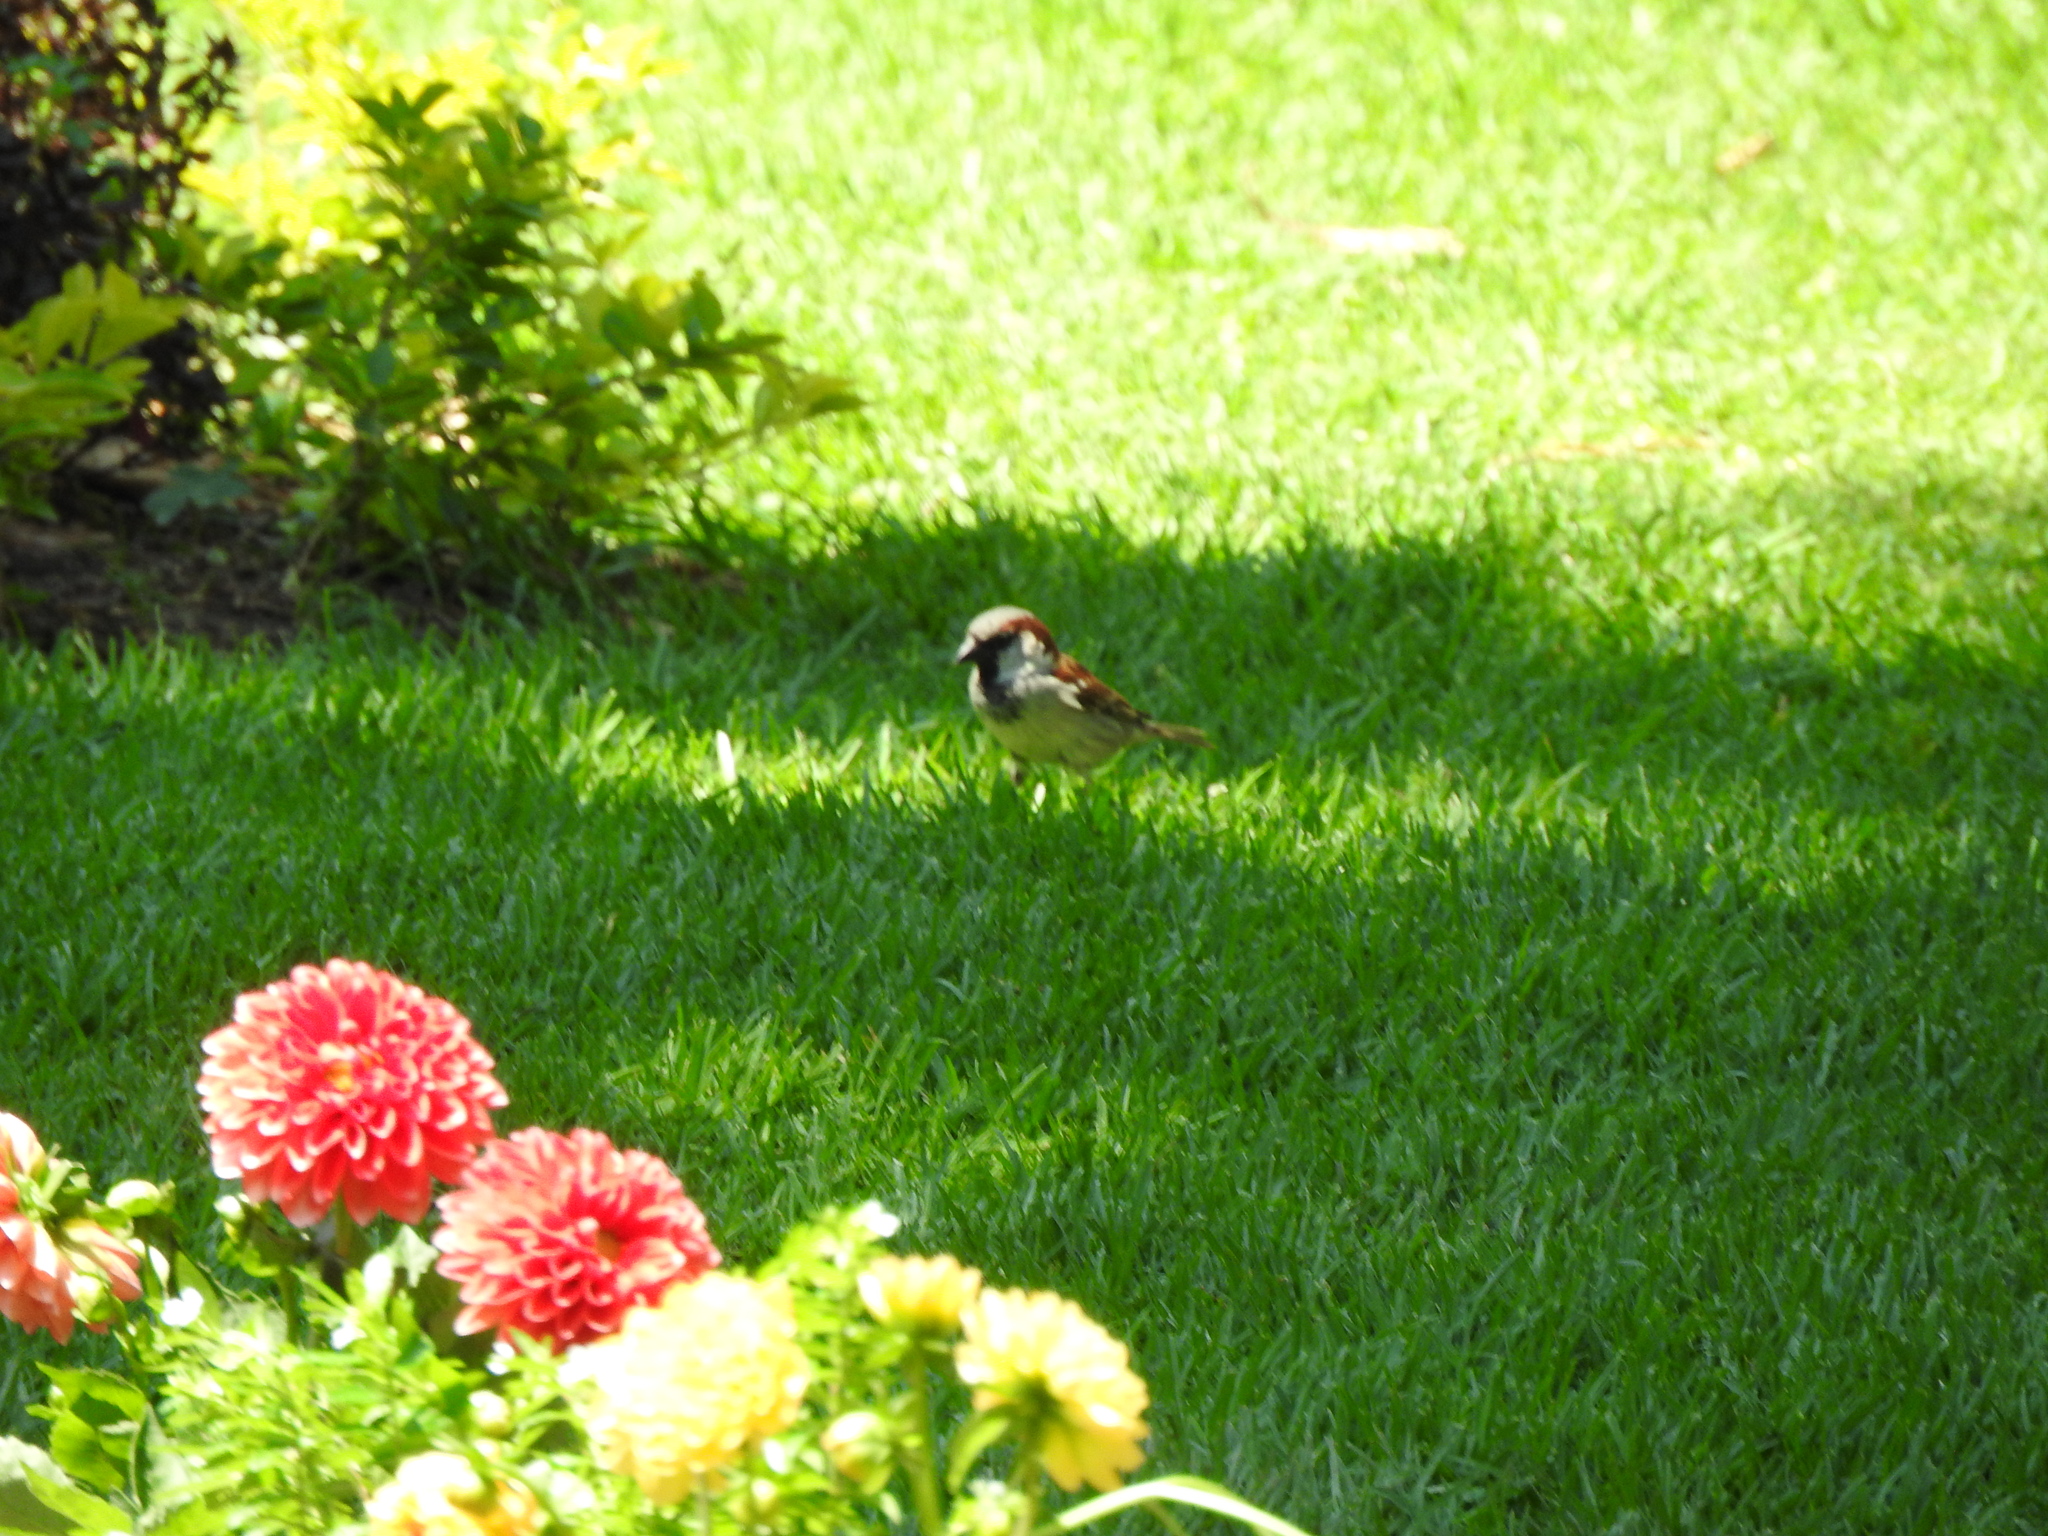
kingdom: Animalia
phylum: Chordata
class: Aves
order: Passeriformes
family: Passeridae
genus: Passer
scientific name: Passer domesticus
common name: House sparrow
